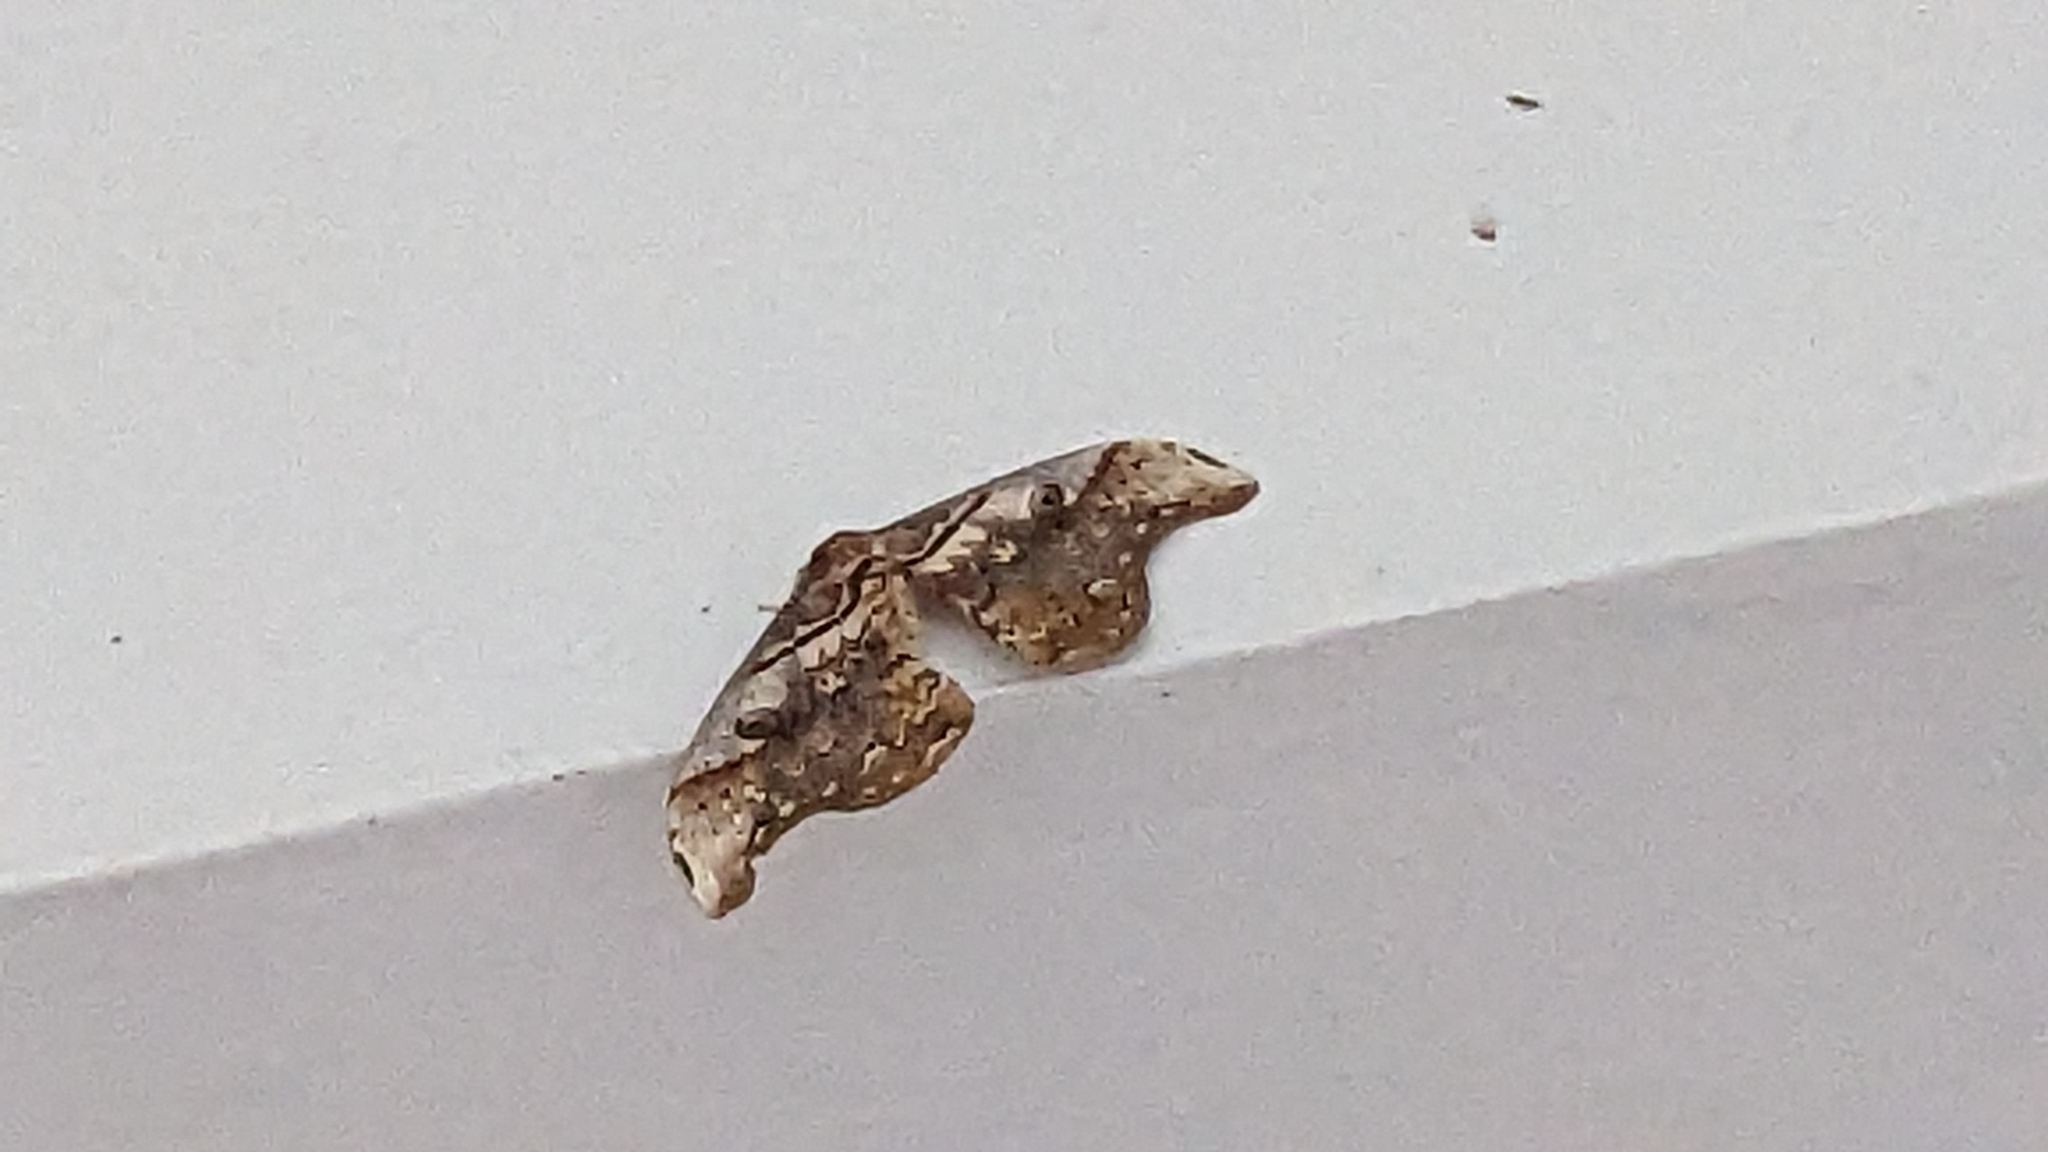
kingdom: Animalia
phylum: Arthropoda
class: Insecta
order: Lepidoptera
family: Saturniidae
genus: Rinaca
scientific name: Rinaca thibeta
